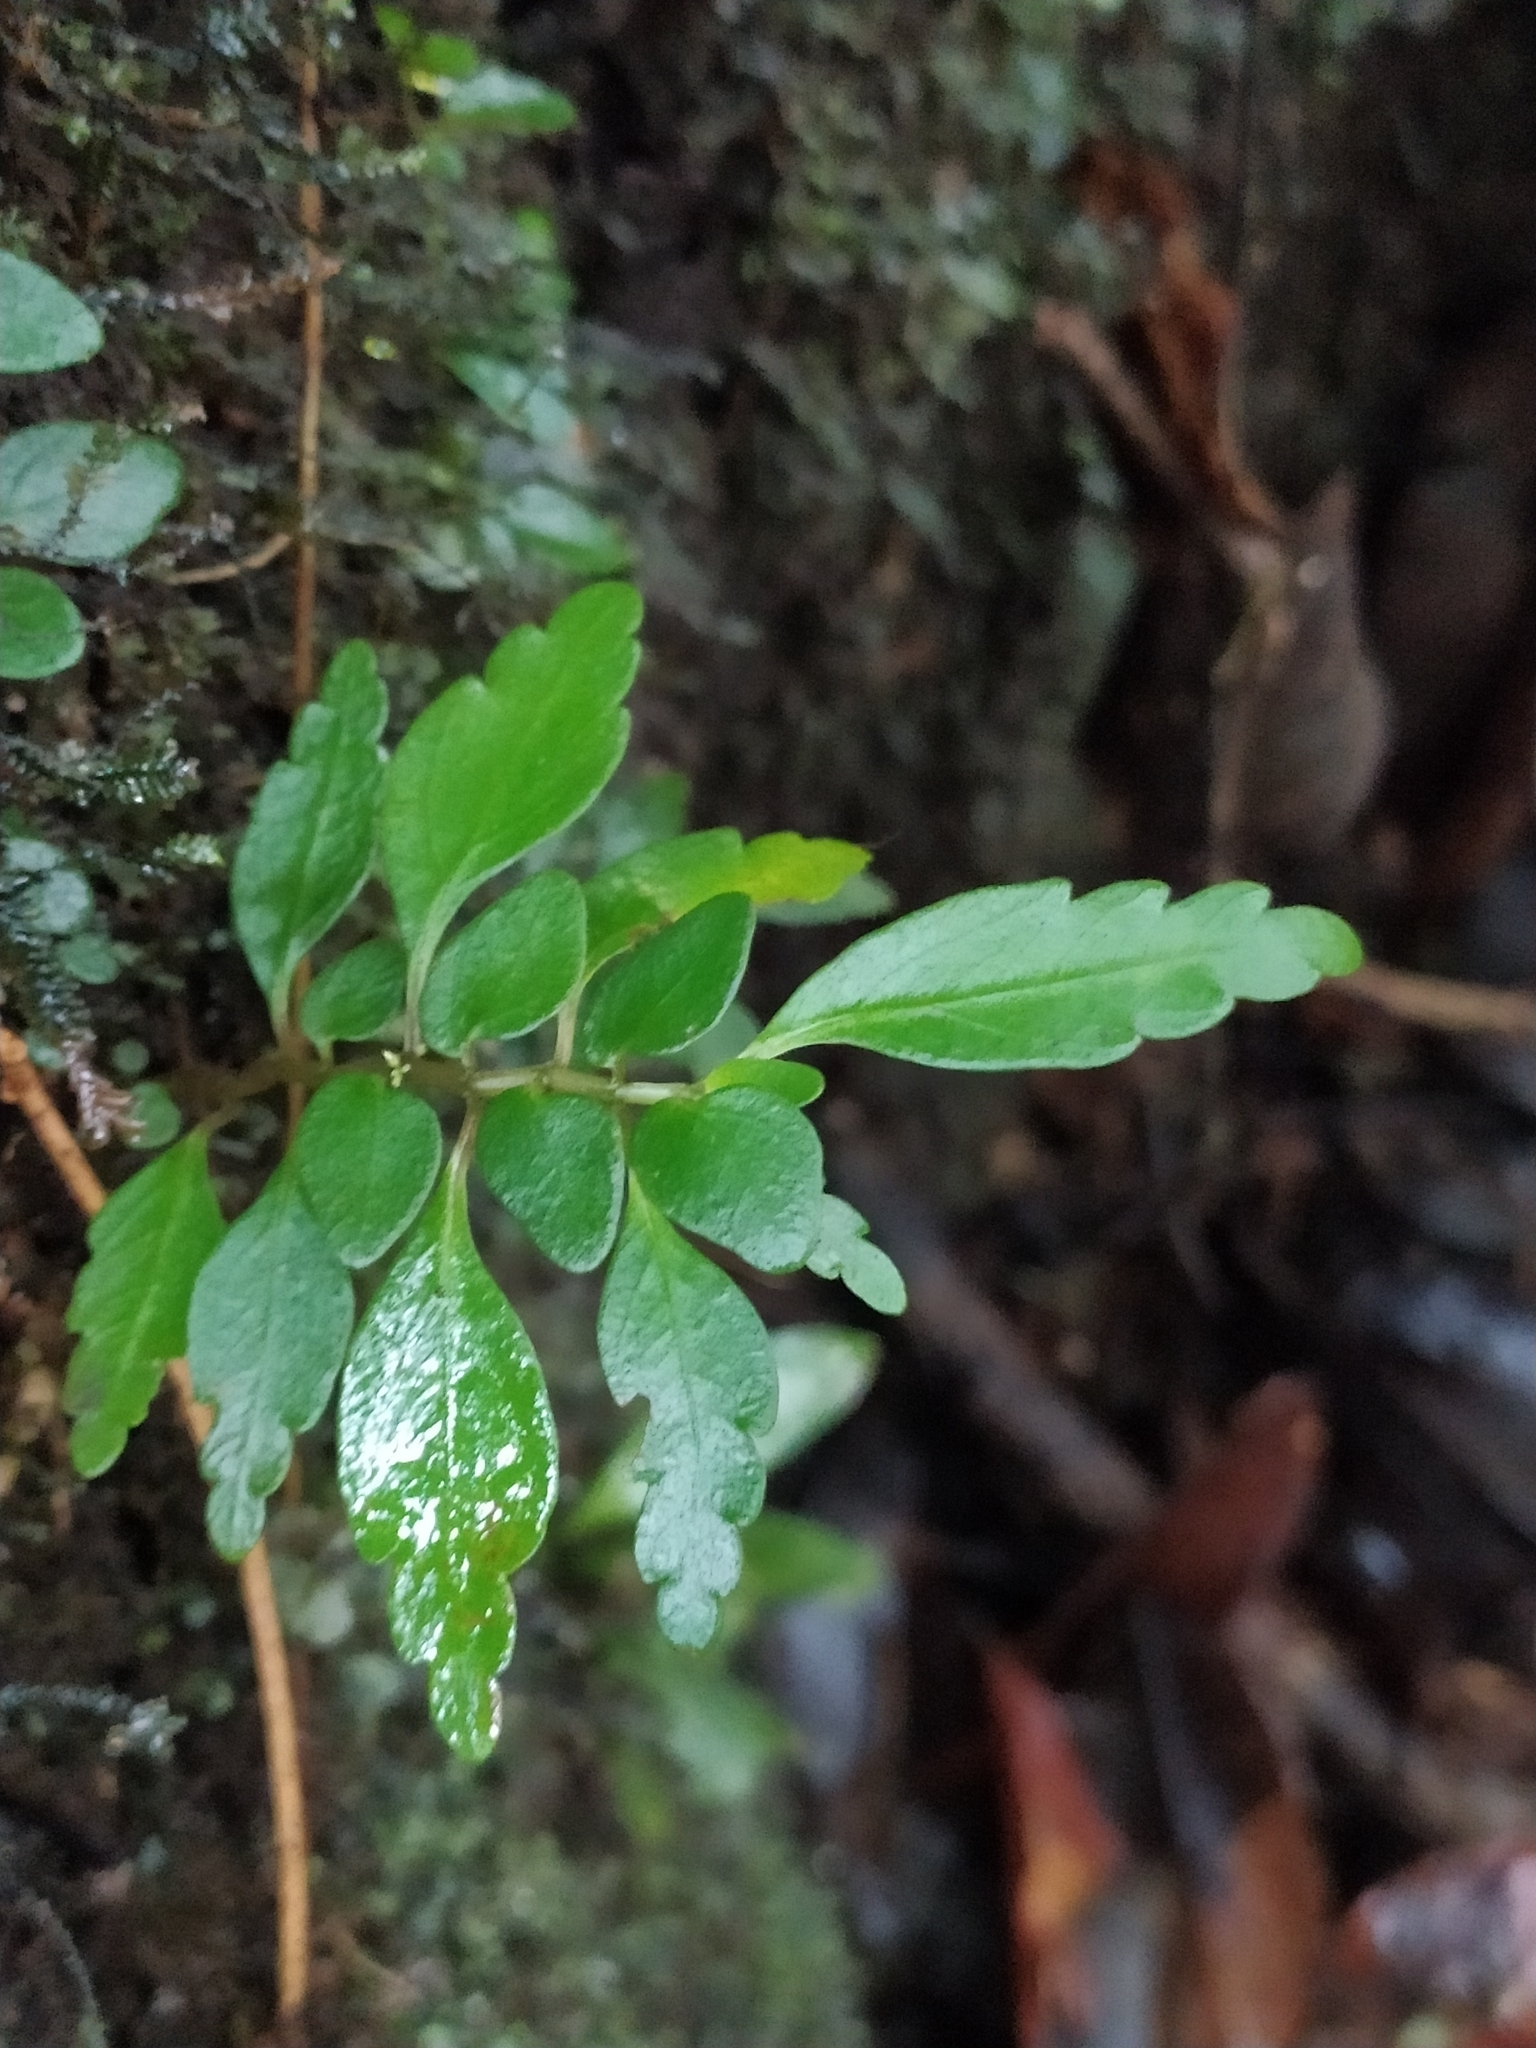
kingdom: Plantae
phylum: Tracheophyta
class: Magnoliopsida
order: Rosales
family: Urticaceae
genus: Pilea
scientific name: Pilea imparifolia
